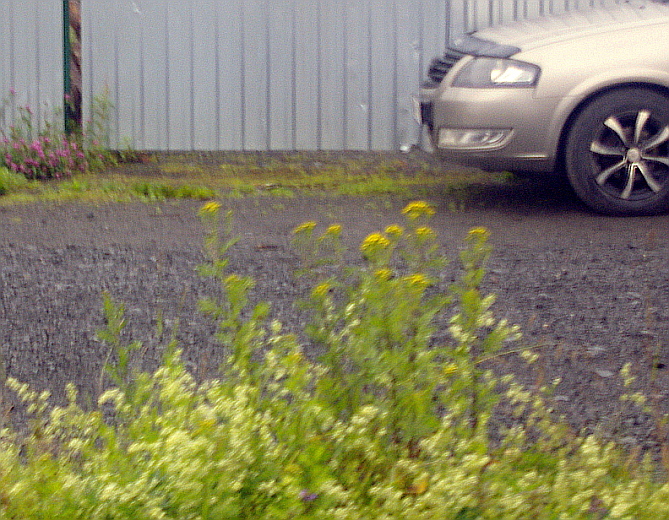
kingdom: Plantae
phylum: Tracheophyta
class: Magnoliopsida
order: Asterales
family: Asteraceae
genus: Tanacetum
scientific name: Tanacetum vulgare
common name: Common tansy
